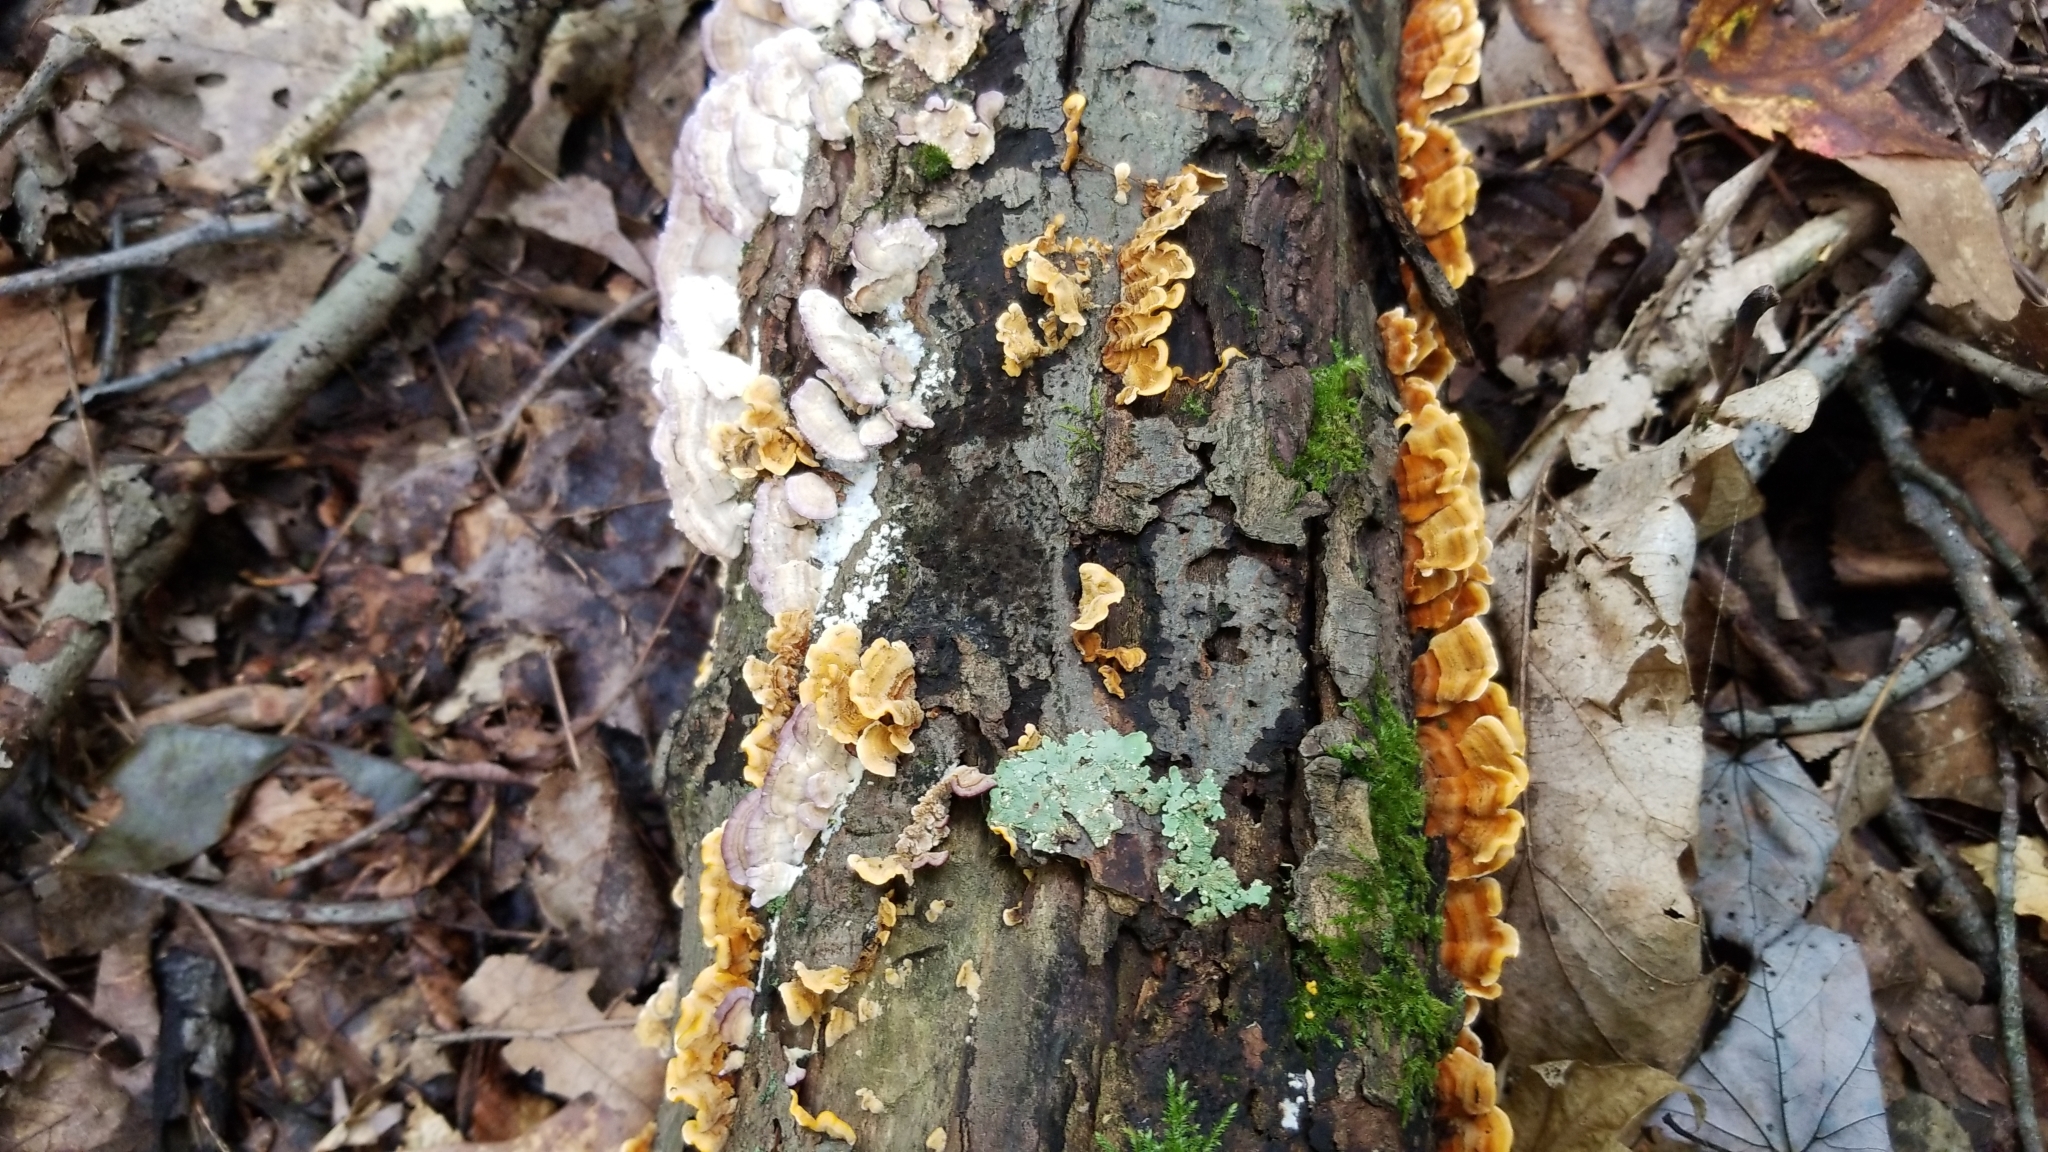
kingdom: Fungi
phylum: Basidiomycota
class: Agaricomycetes
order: Russulales
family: Stereaceae
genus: Stereum
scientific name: Stereum complicatum
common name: Crowded parchment
